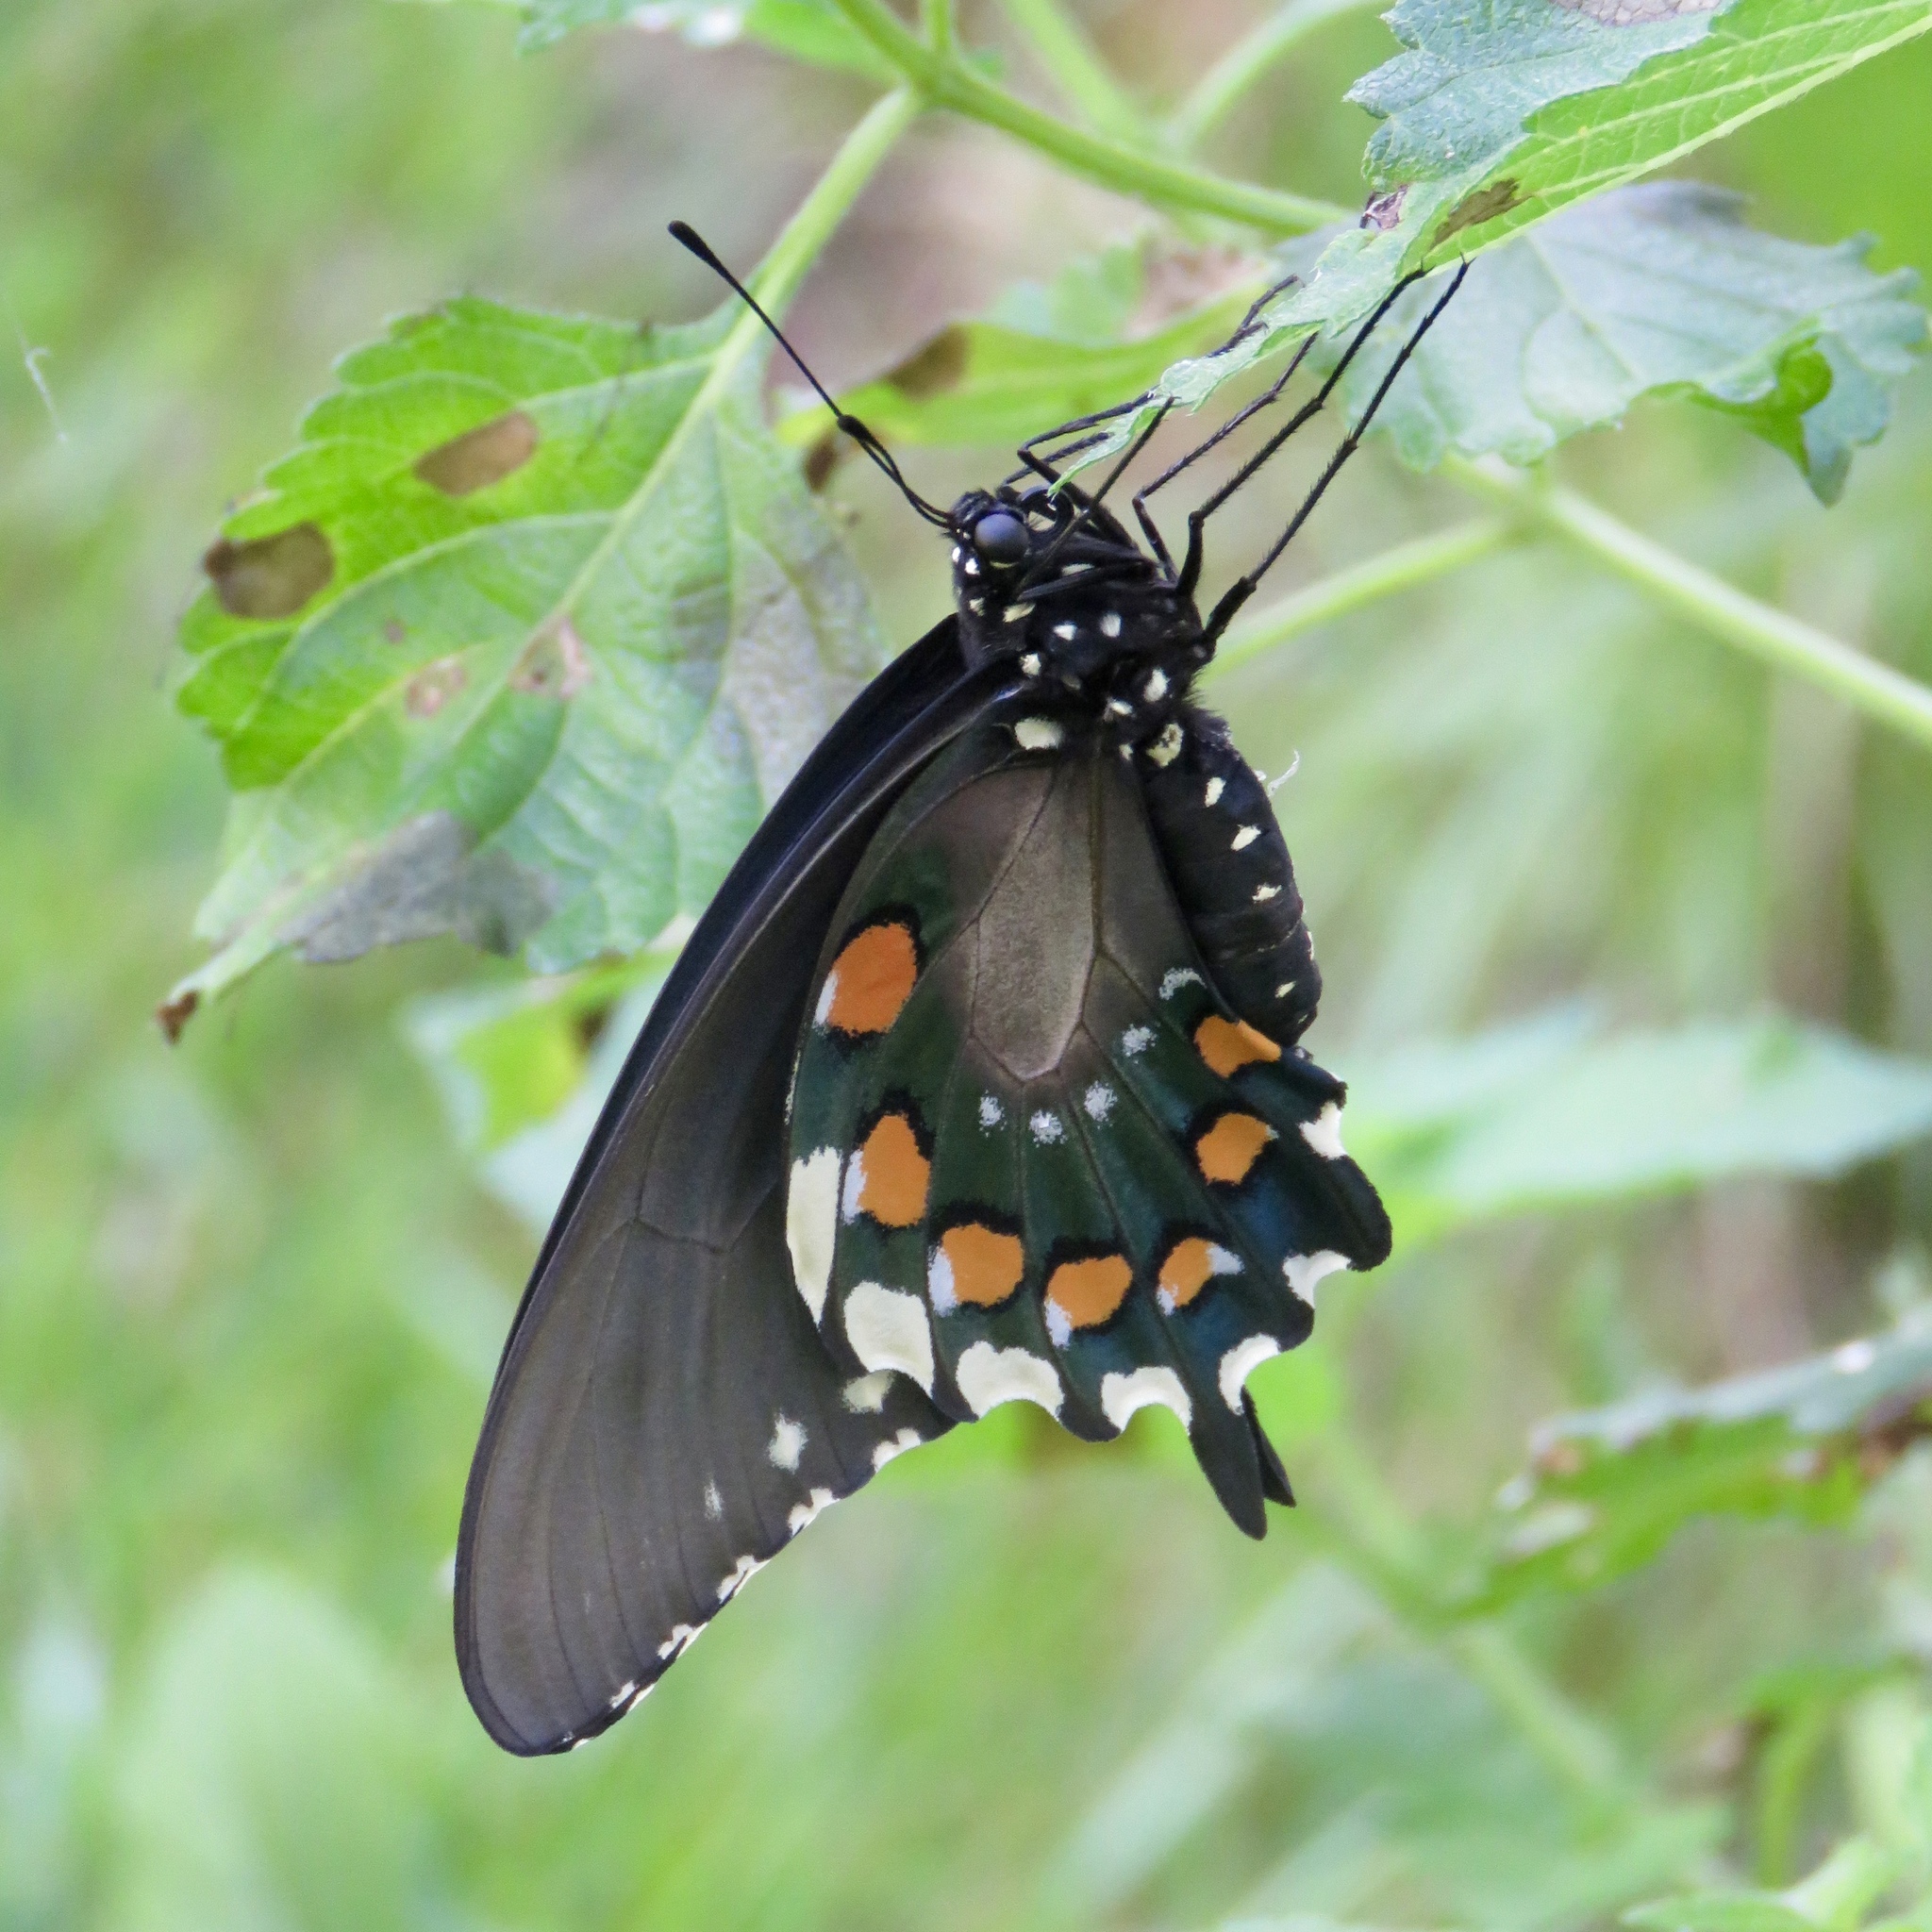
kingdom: Animalia
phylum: Arthropoda
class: Insecta
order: Lepidoptera
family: Papilionidae
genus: Battus
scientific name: Battus philenor
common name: Pipevine swallowtail
